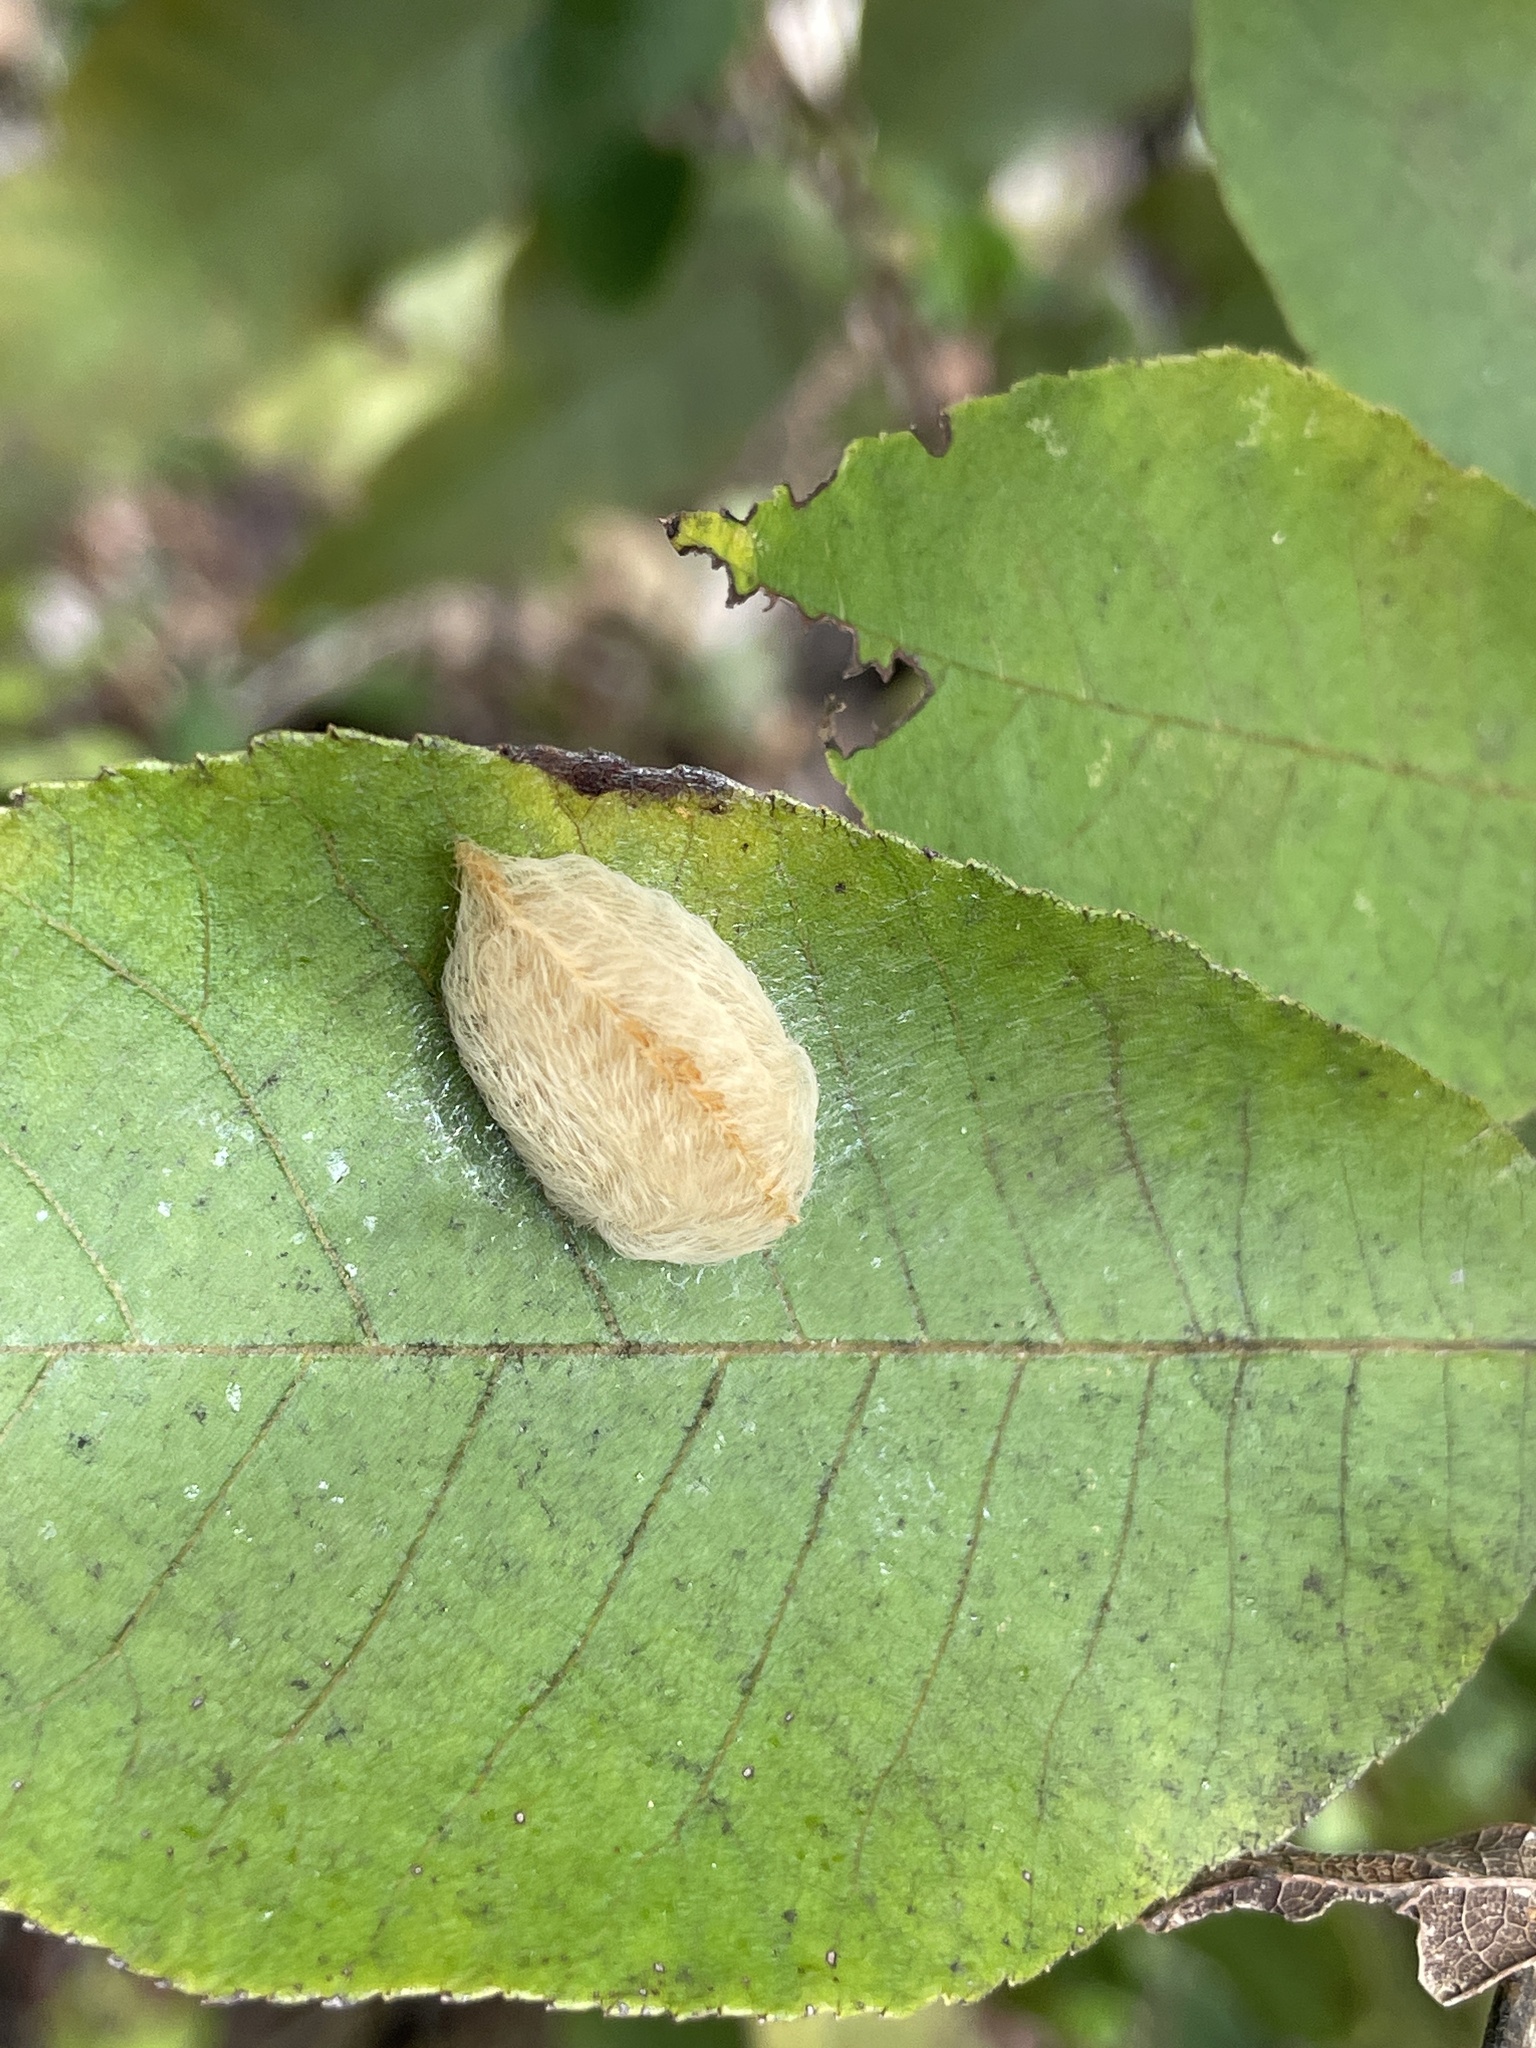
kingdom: Animalia
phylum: Arthropoda
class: Insecta
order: Lepidoptera
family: Megalopygidae
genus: Megalopyge
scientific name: Megalopyge opercularis
